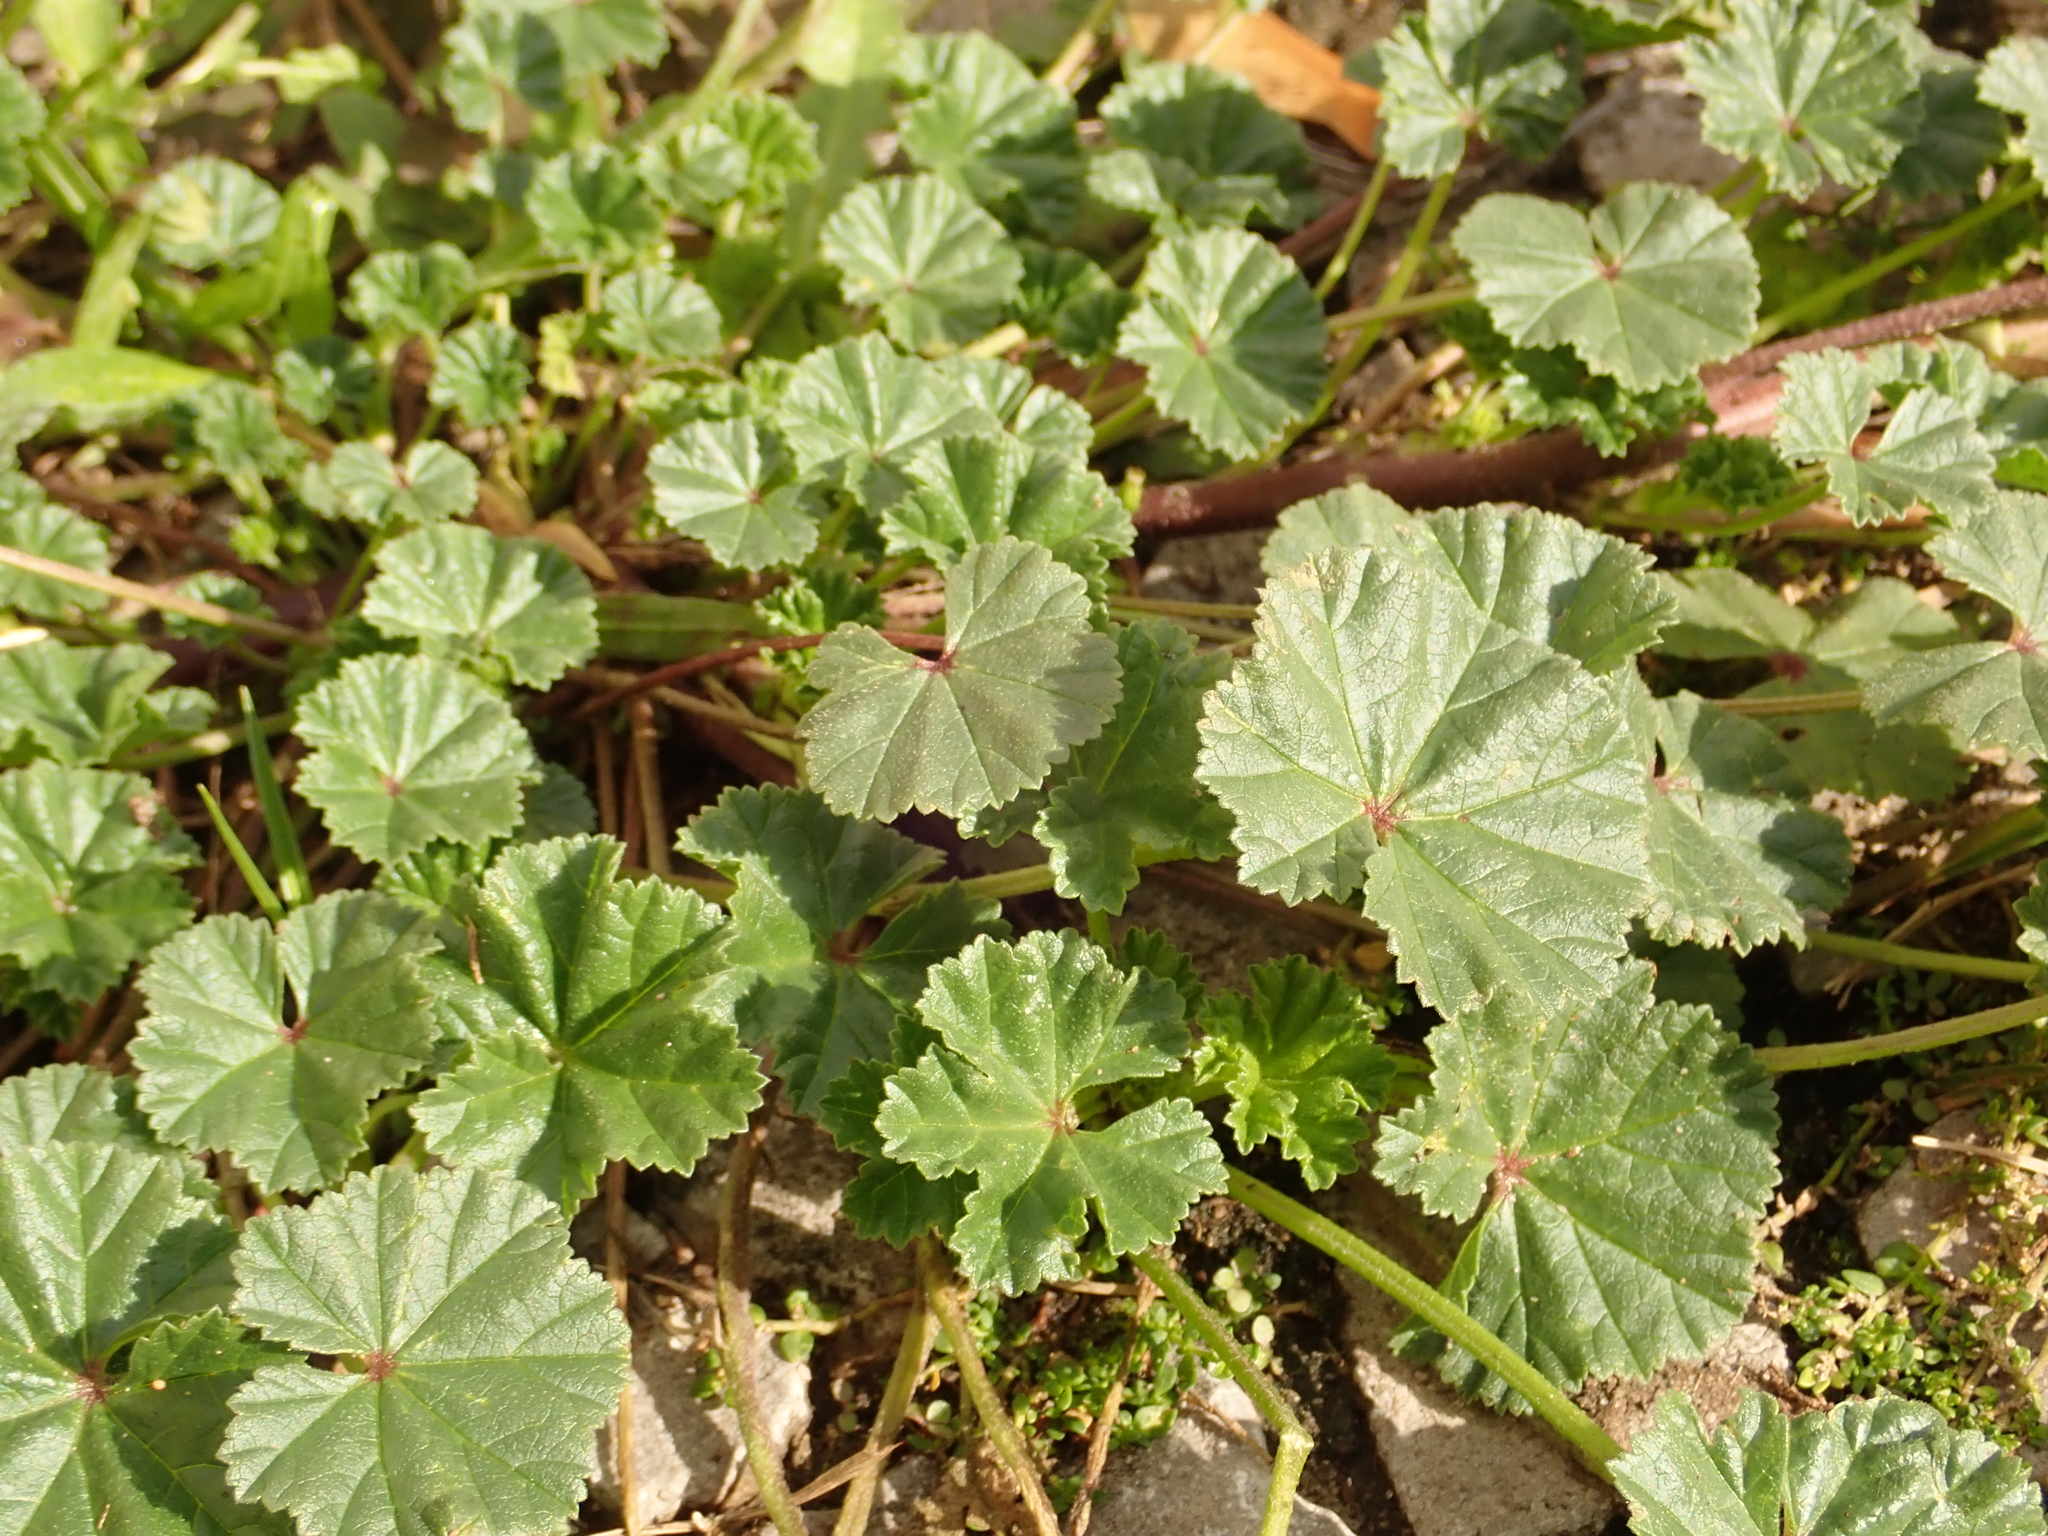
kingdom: Plantae
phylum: Tracheophyta
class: Magnoliopsida
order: Malvales
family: Malvaceae
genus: Malva
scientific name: Malva neglecta
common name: Common mallow
